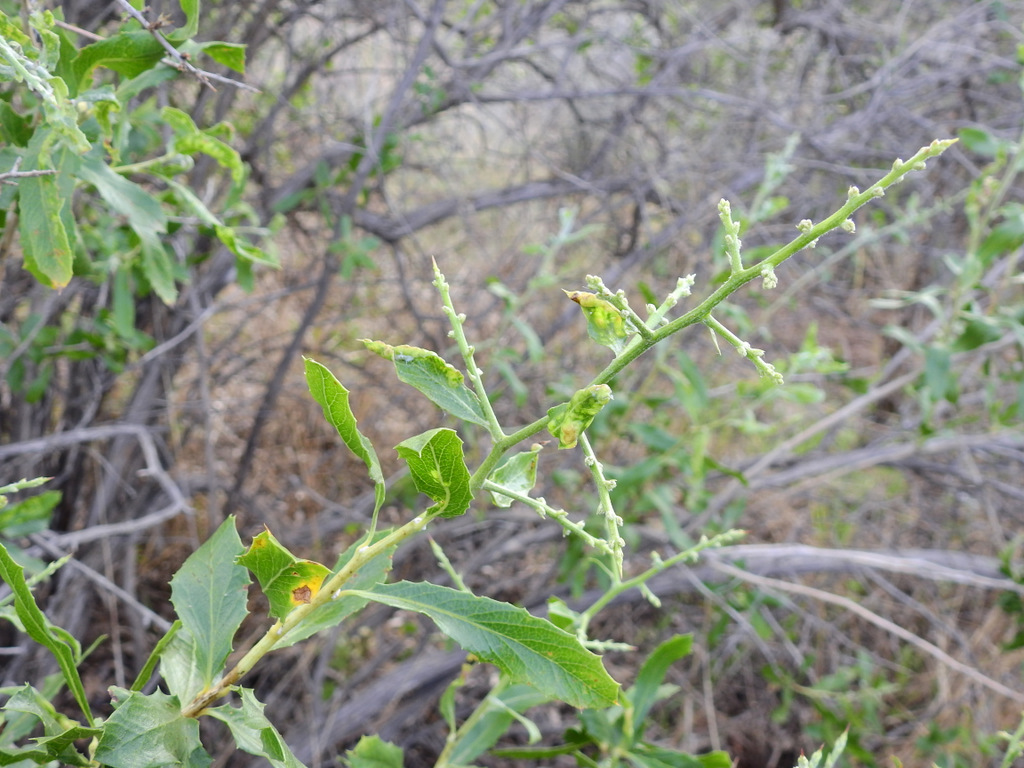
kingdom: Plantae
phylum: Tracheophyta
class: Magnoliopsida
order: Asterales
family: Asteraceae
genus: Proustia
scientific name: Proustia cuneifolia
